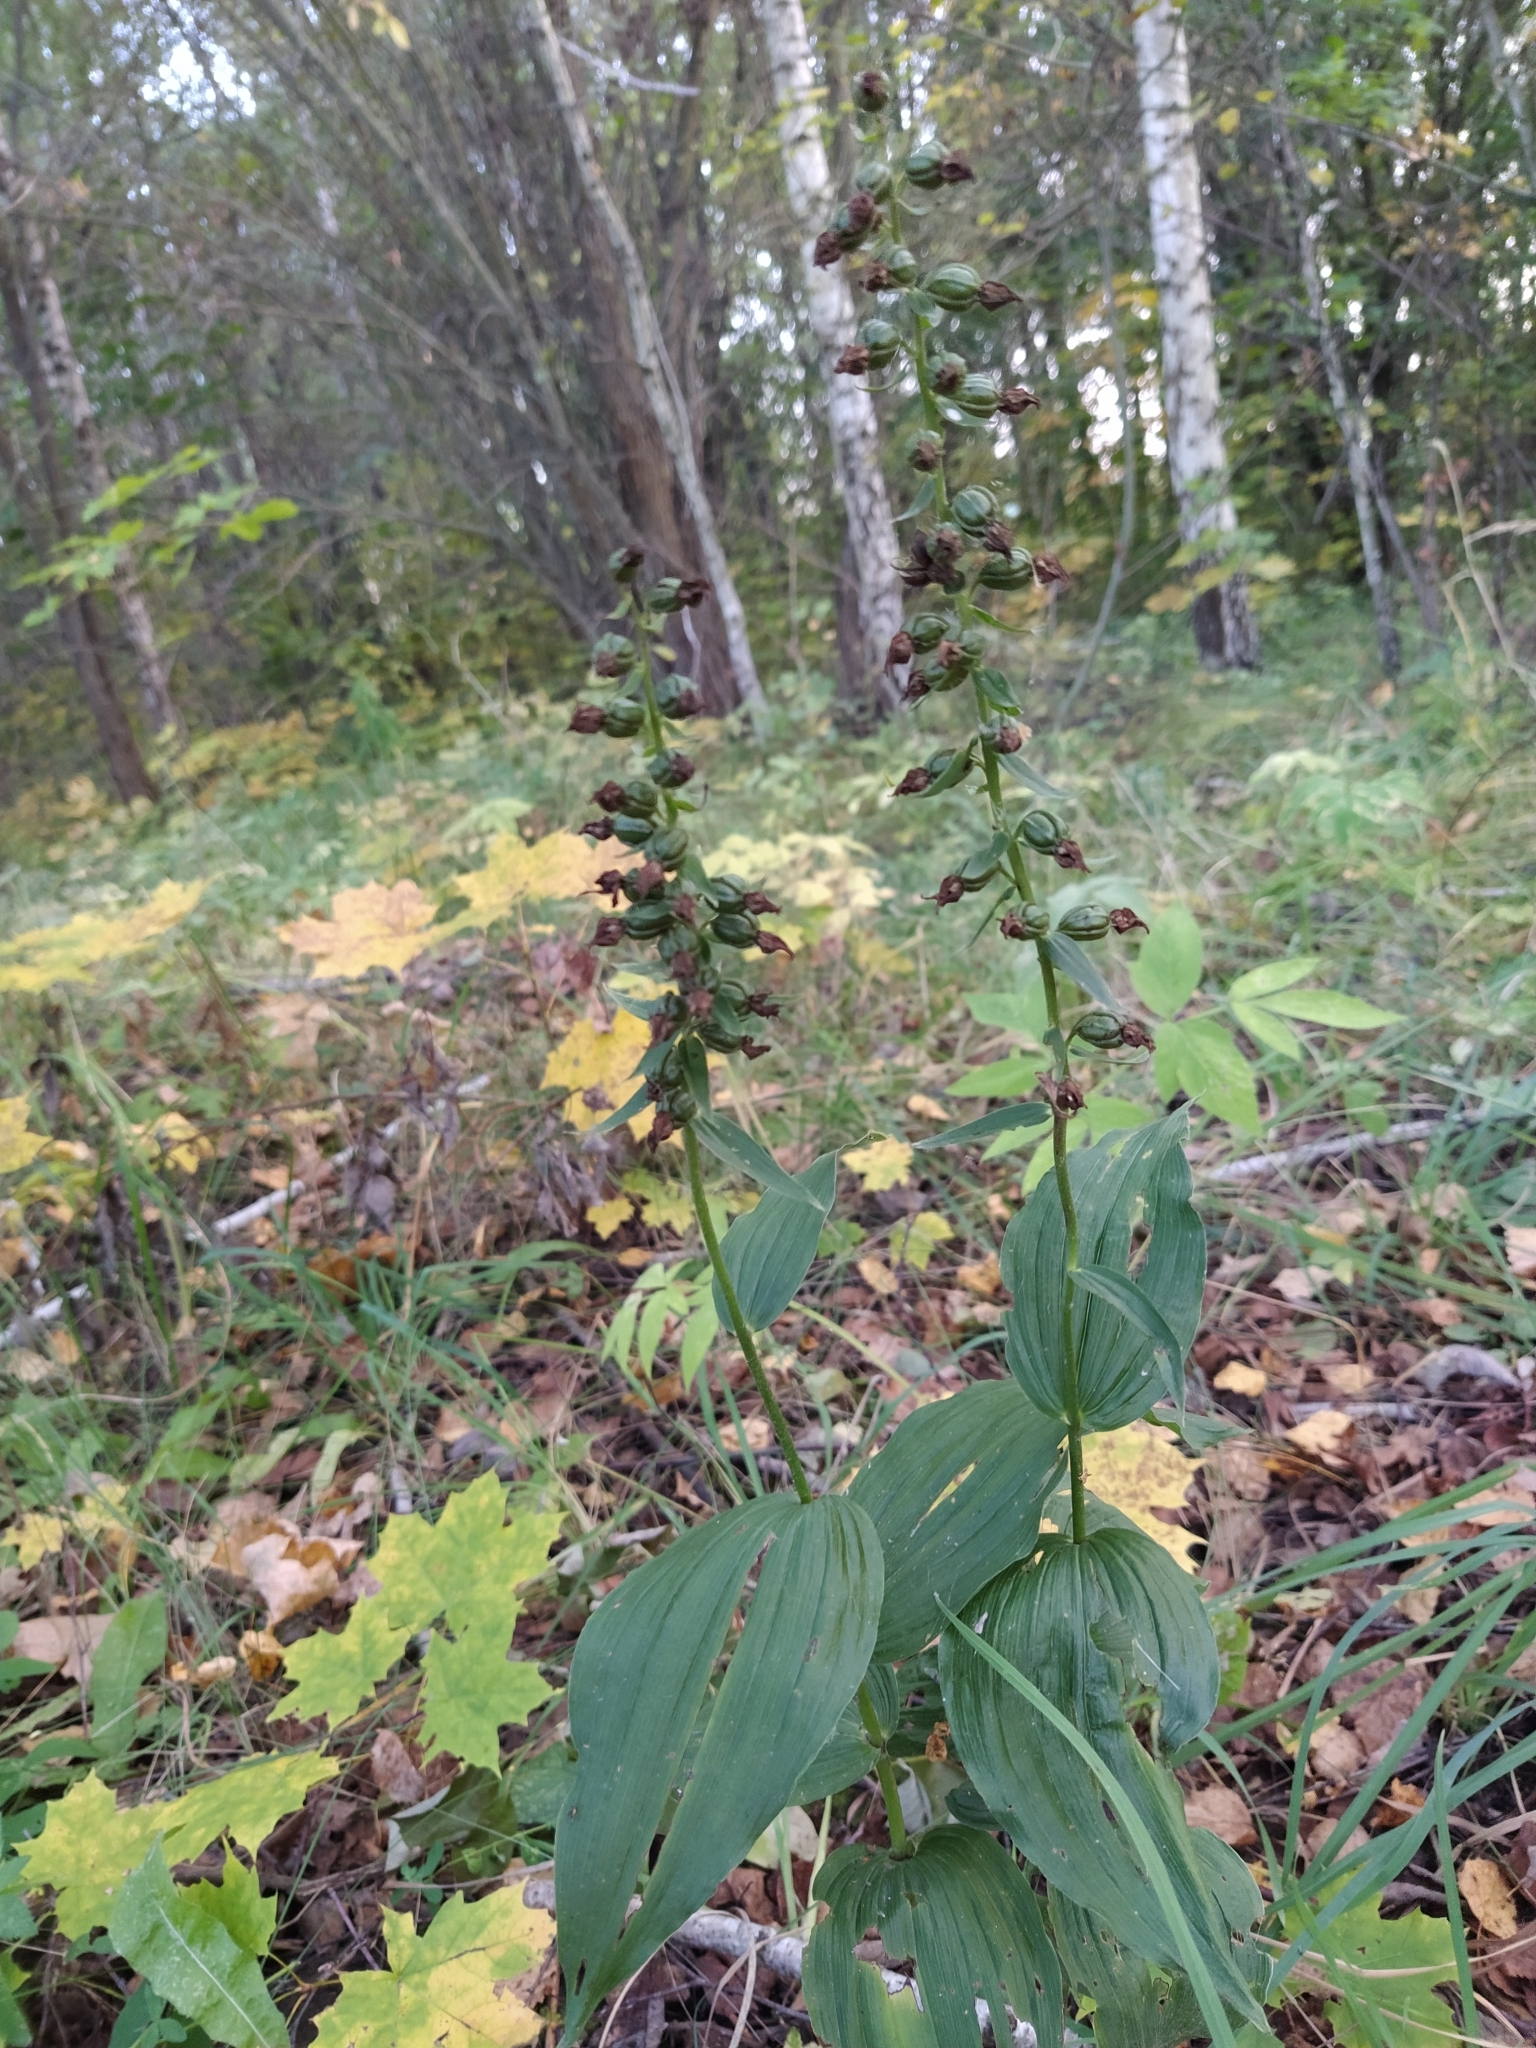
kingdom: Plantae
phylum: Tracheophyta
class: Liliopsida
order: Asparagales
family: Orchidaceae
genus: Epipactis
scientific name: Epipactis helleborine
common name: Broad-leaved helleborine
